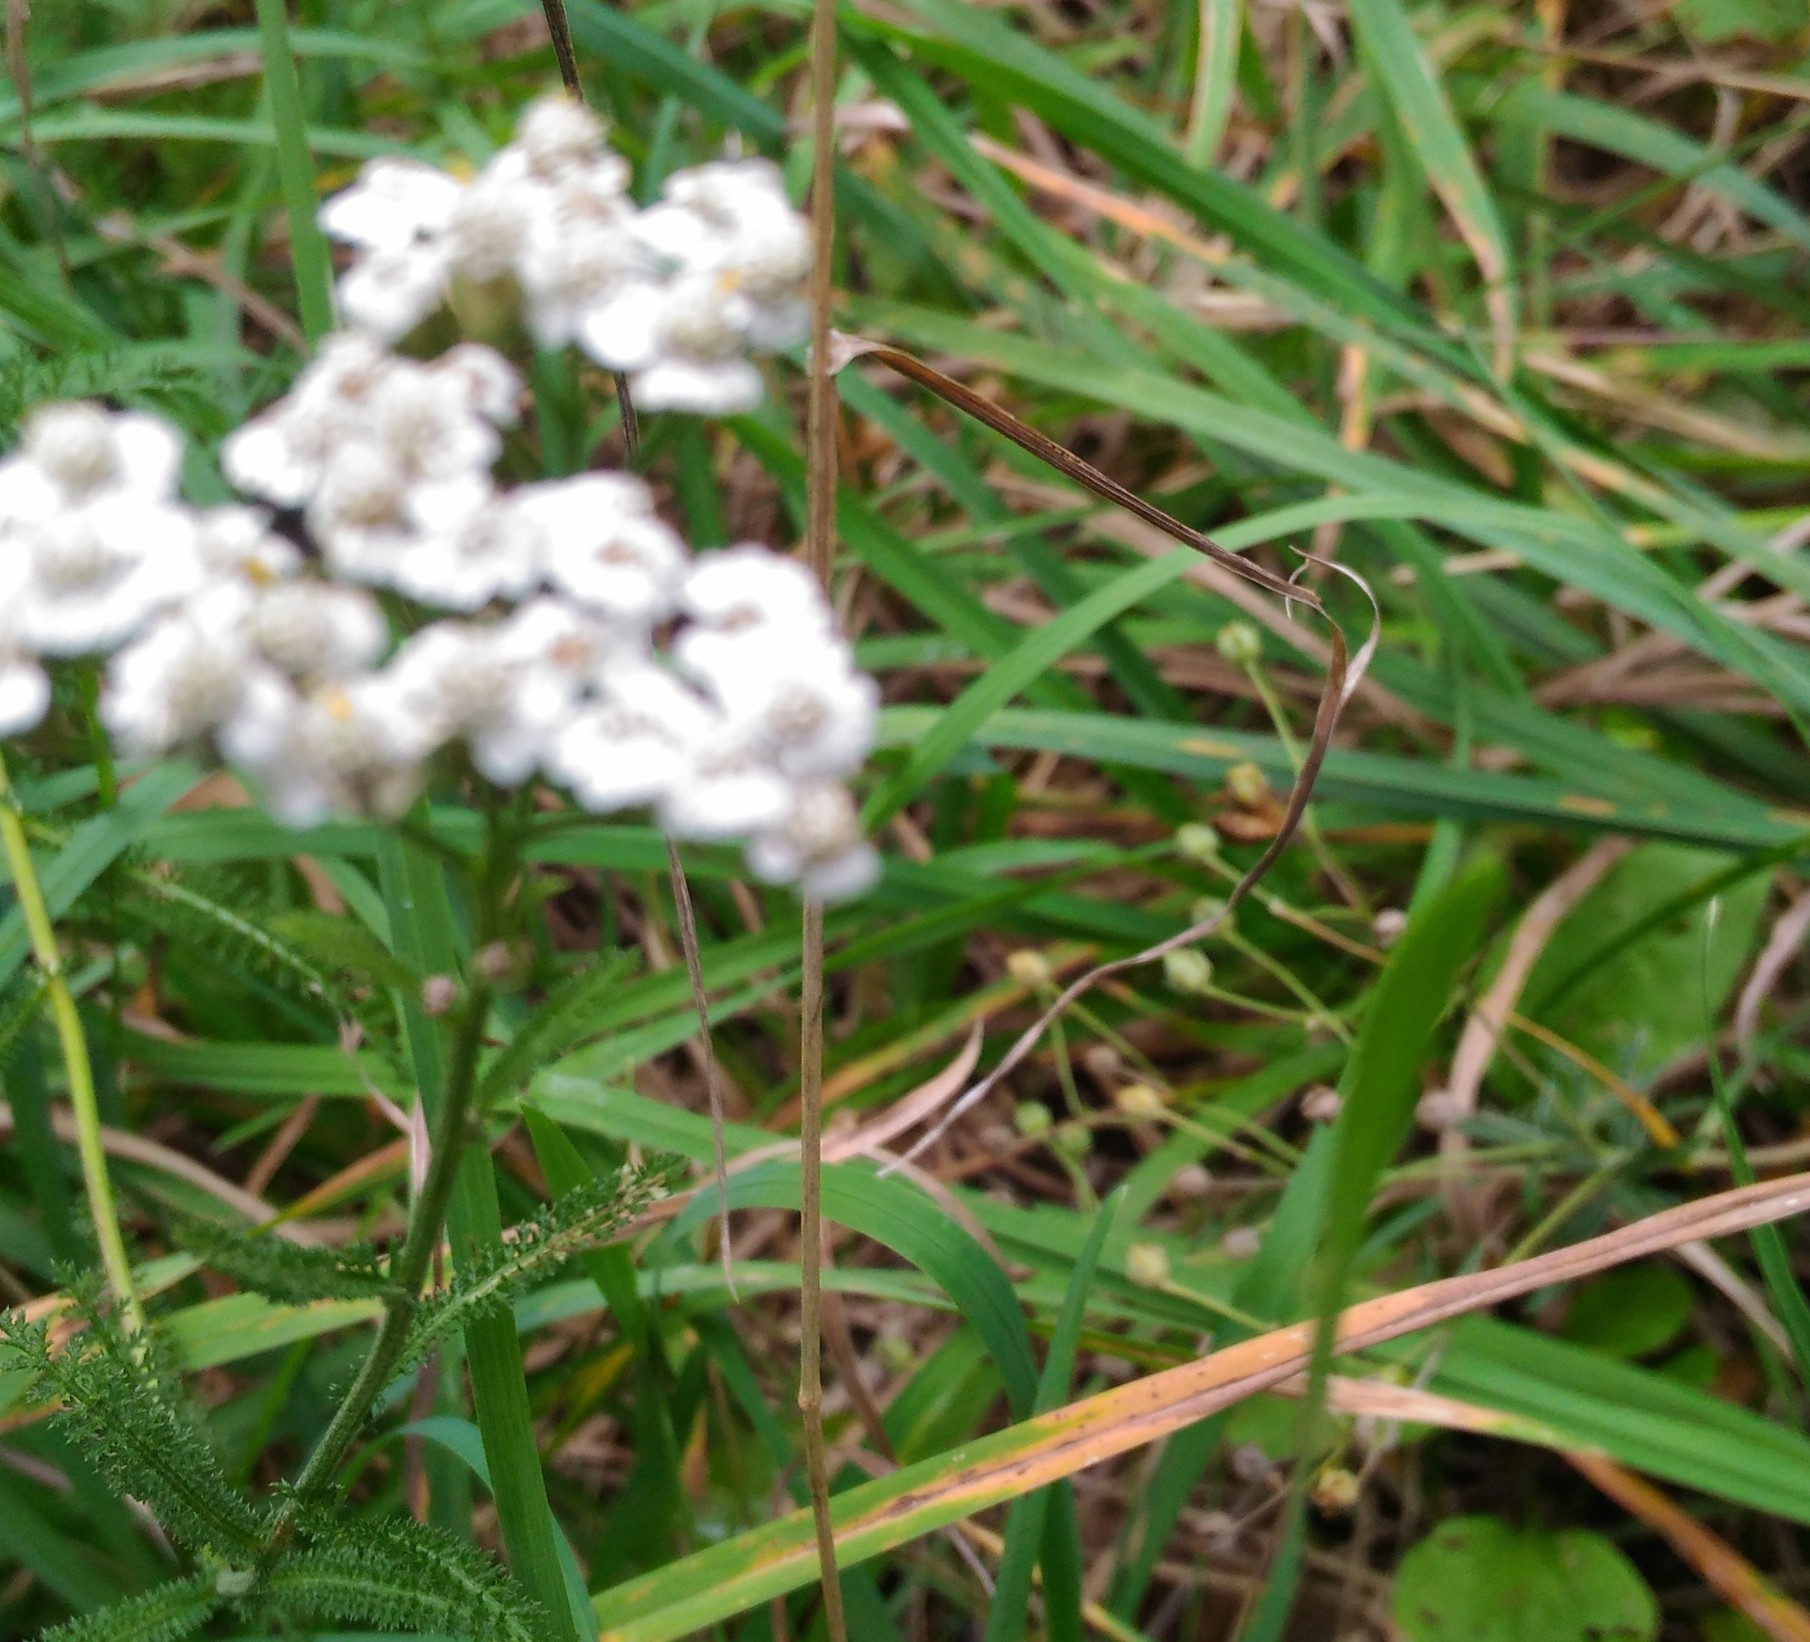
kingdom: Plantae
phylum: Tracheophyta
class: Magnoliopsida
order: Asterales
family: Asteraceae
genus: Achillea
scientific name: Achillea millefolium
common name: Yarrow
